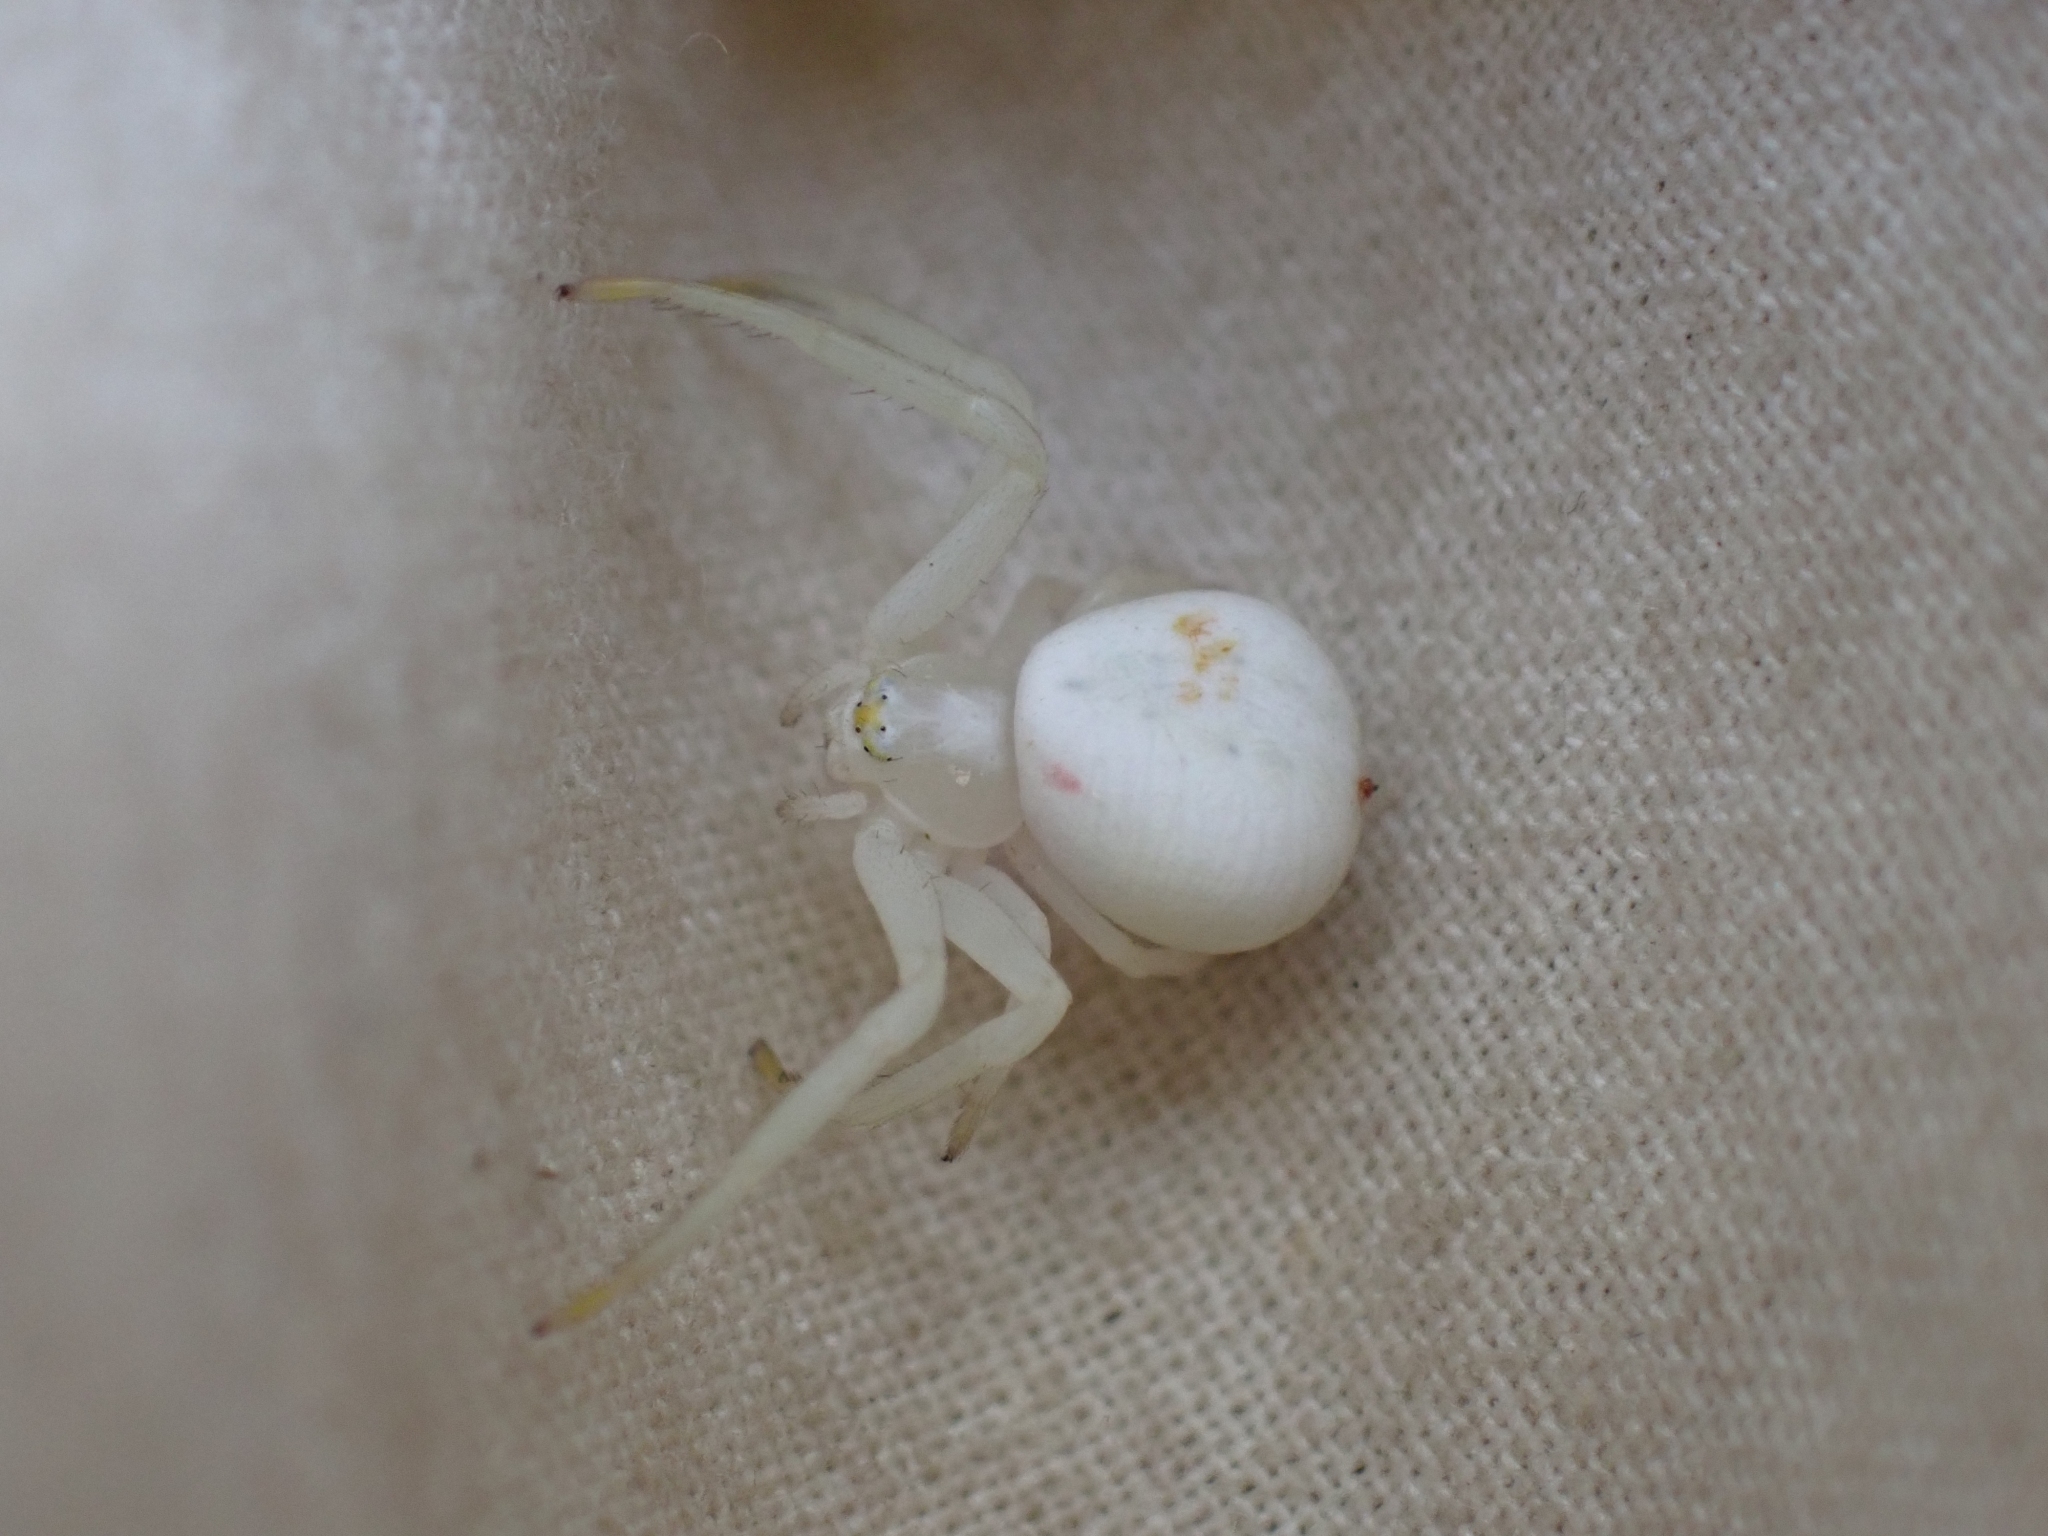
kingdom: Animalia
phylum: Arthropoda
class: Arachnida
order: Araneae
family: Thomisidae
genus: Misumena
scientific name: Misumena vatia
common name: Goldenrod crab spider
